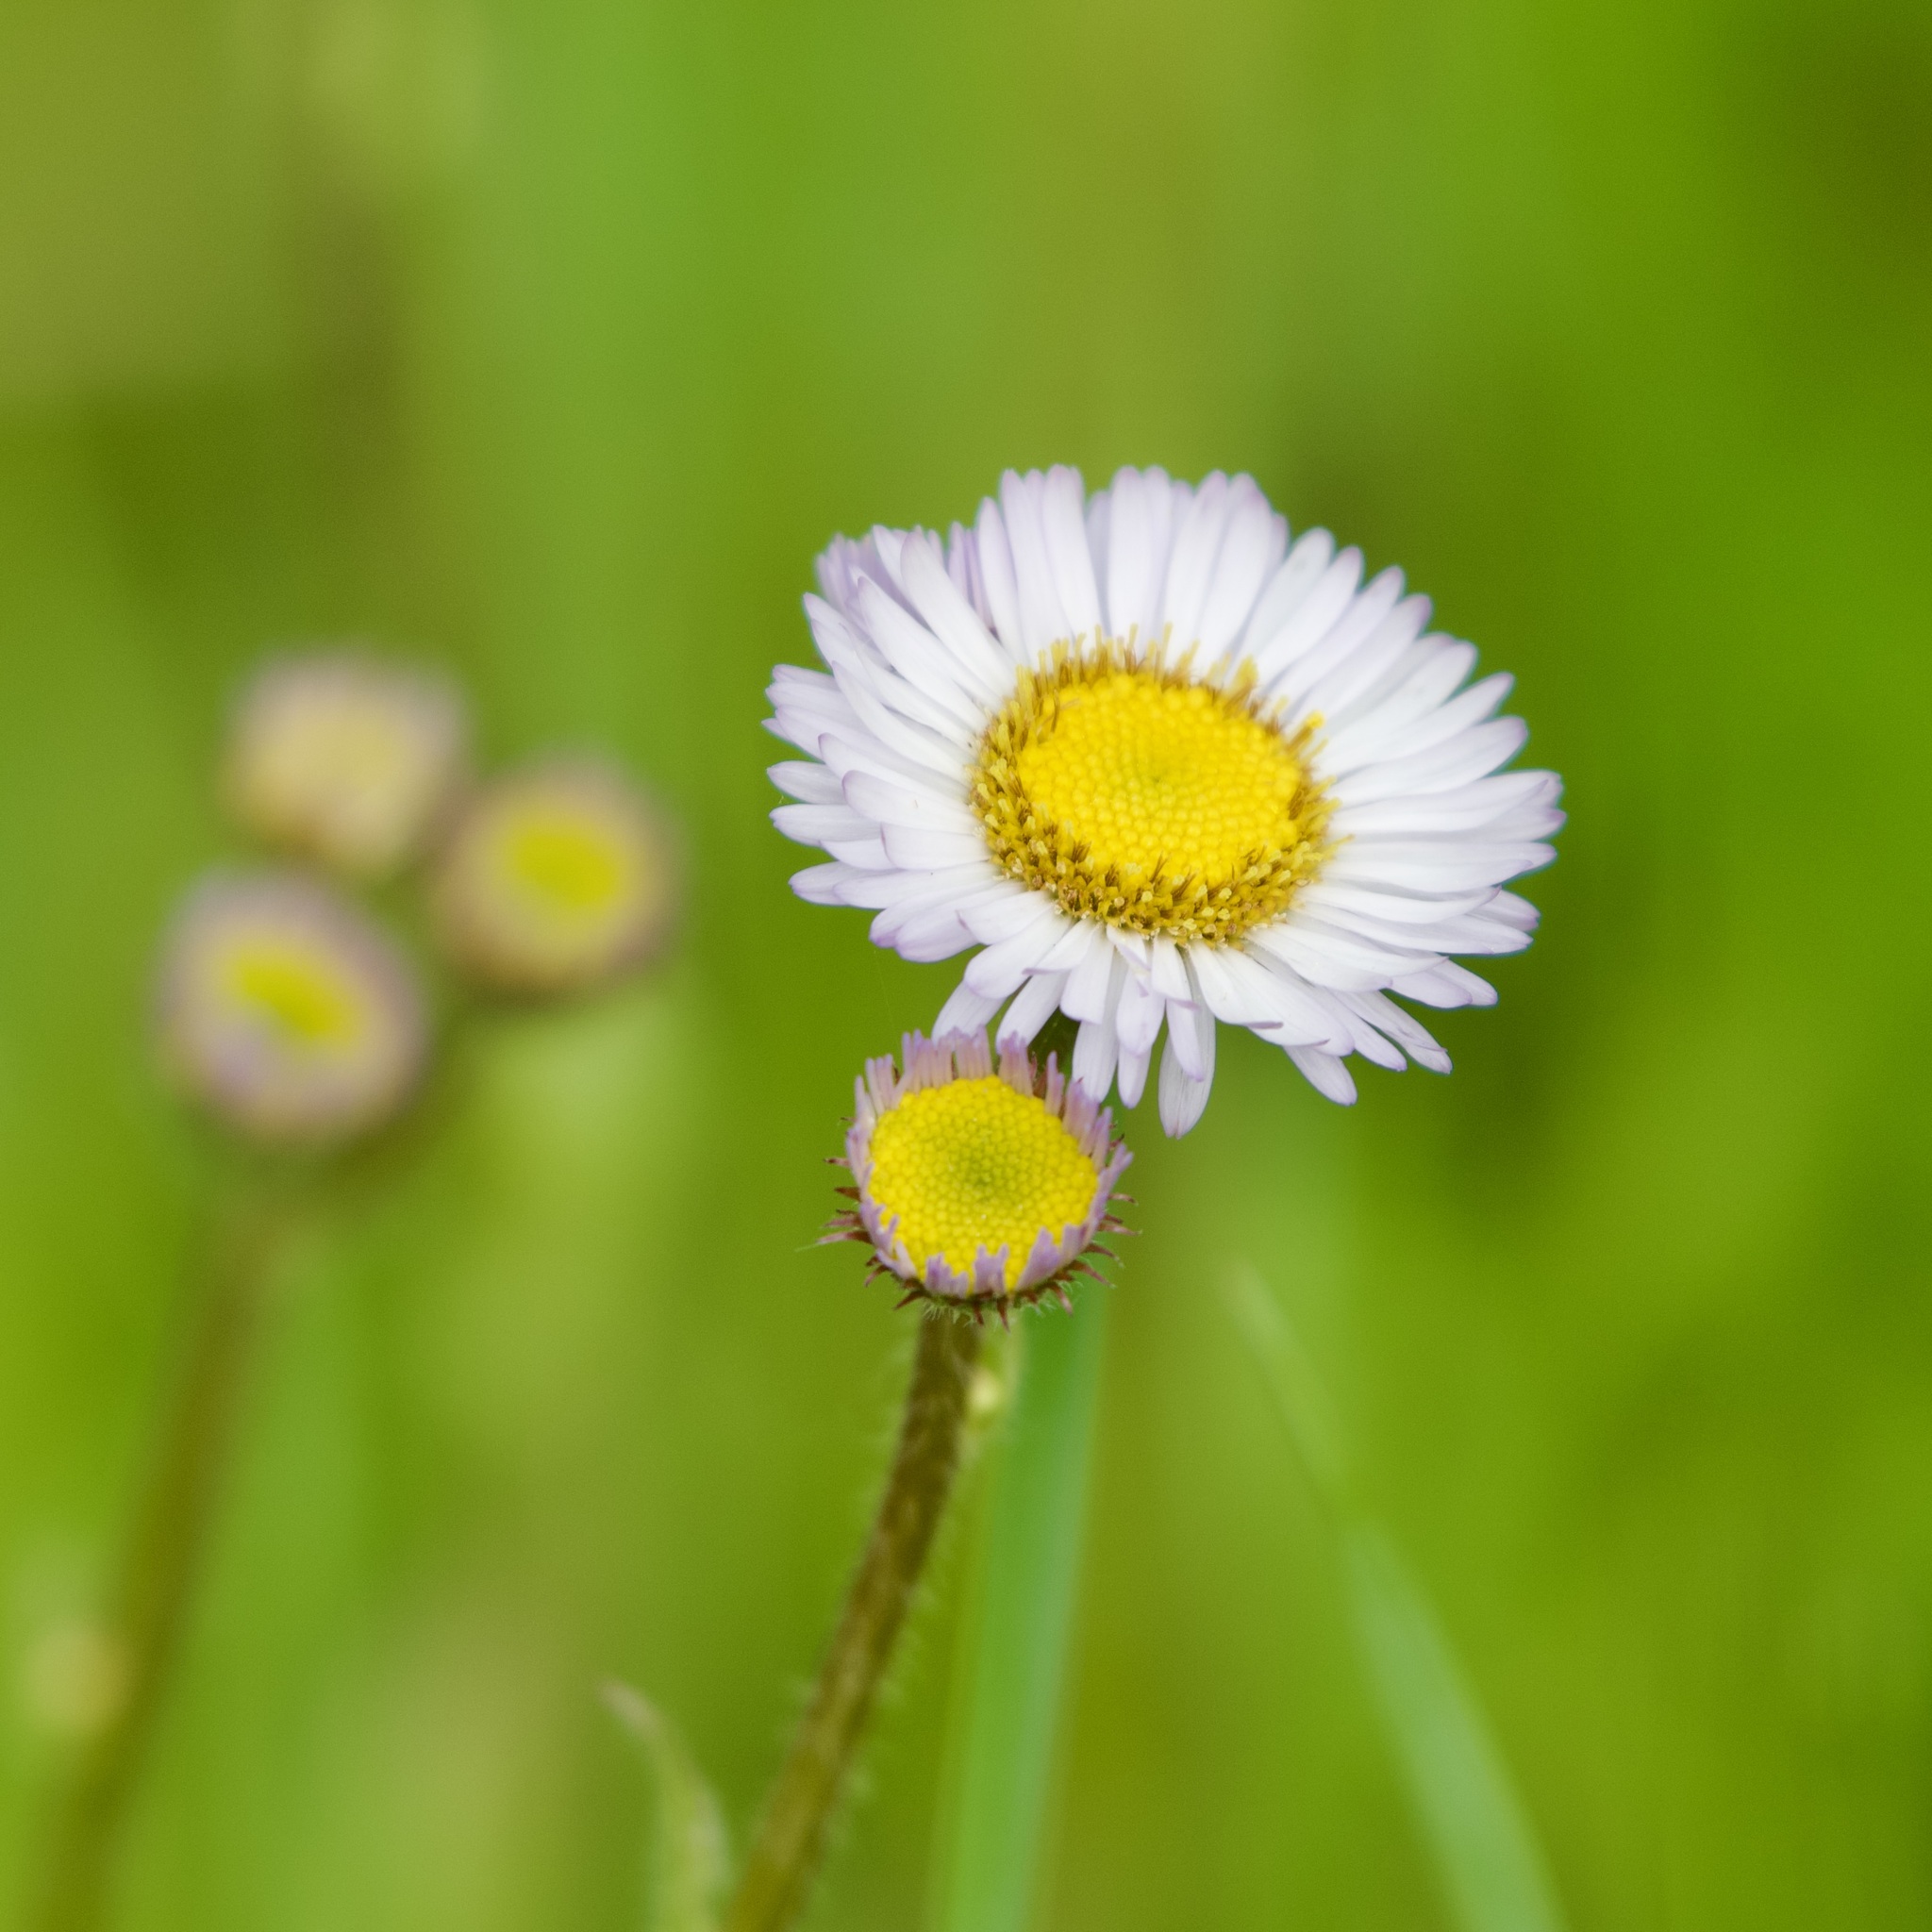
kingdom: Plantae
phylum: Tracheophyta
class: Magnoliopsida
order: Asterales
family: Asteraceae
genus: Erigeron
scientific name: Erigeron pulchellus
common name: Hairy fleabane
